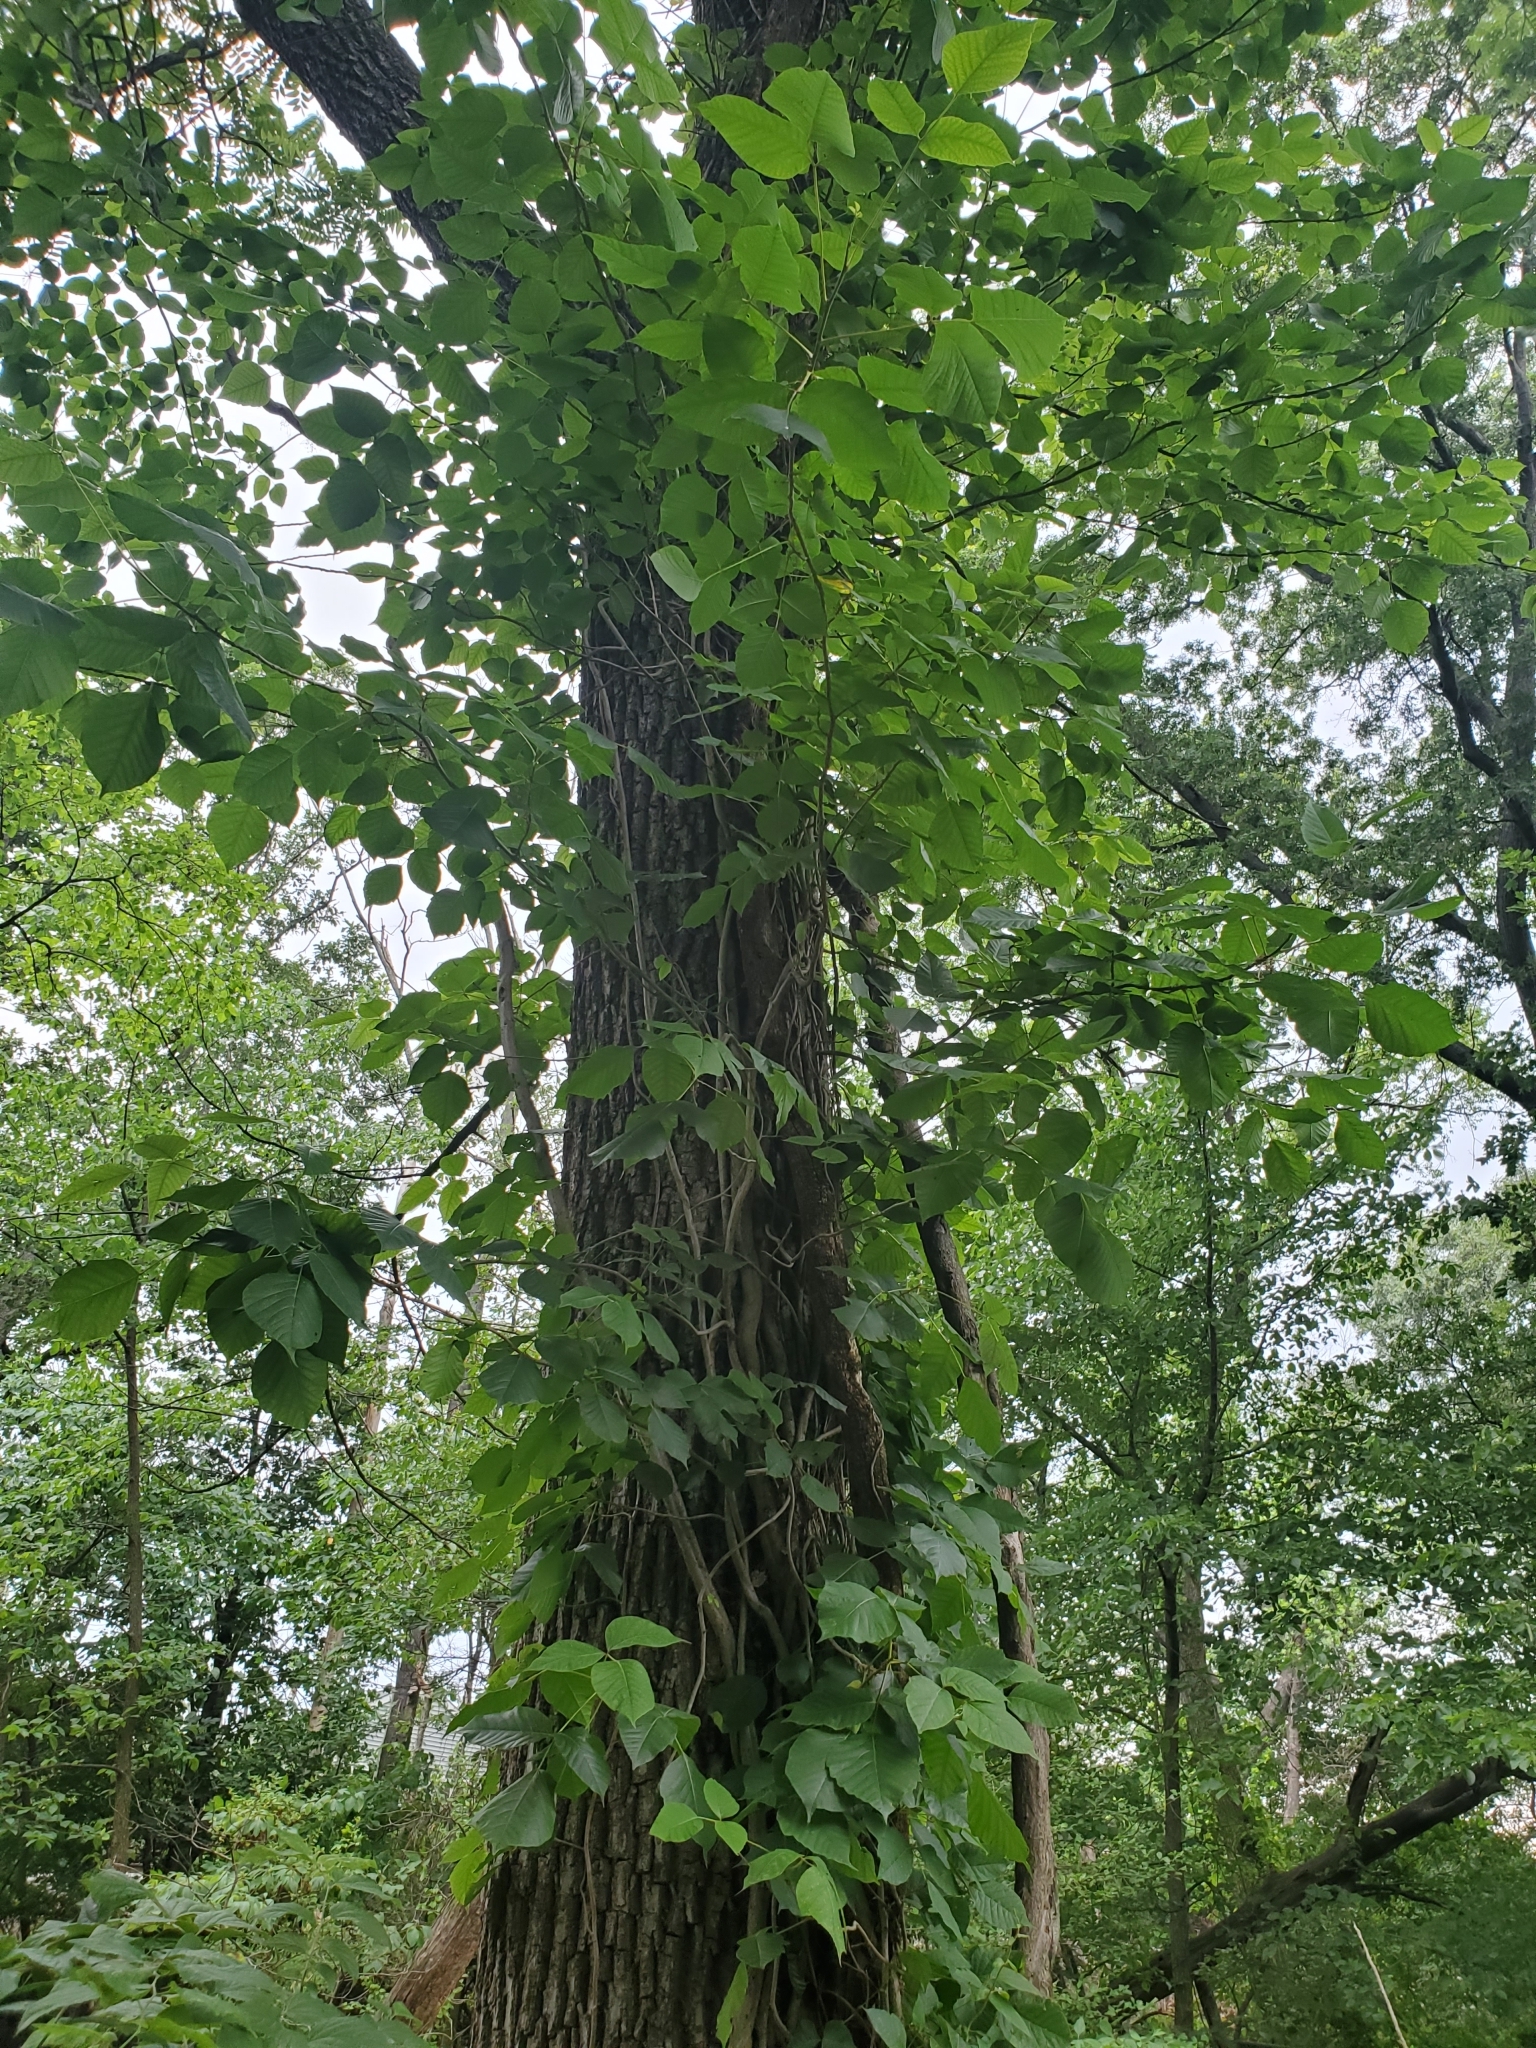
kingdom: Plantae
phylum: Tracheophyta
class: Magnoliopsida
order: Sapindales
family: Anacardiaceae
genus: Toxicodendron
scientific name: Toxicodendron radicans
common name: Poison ivy
